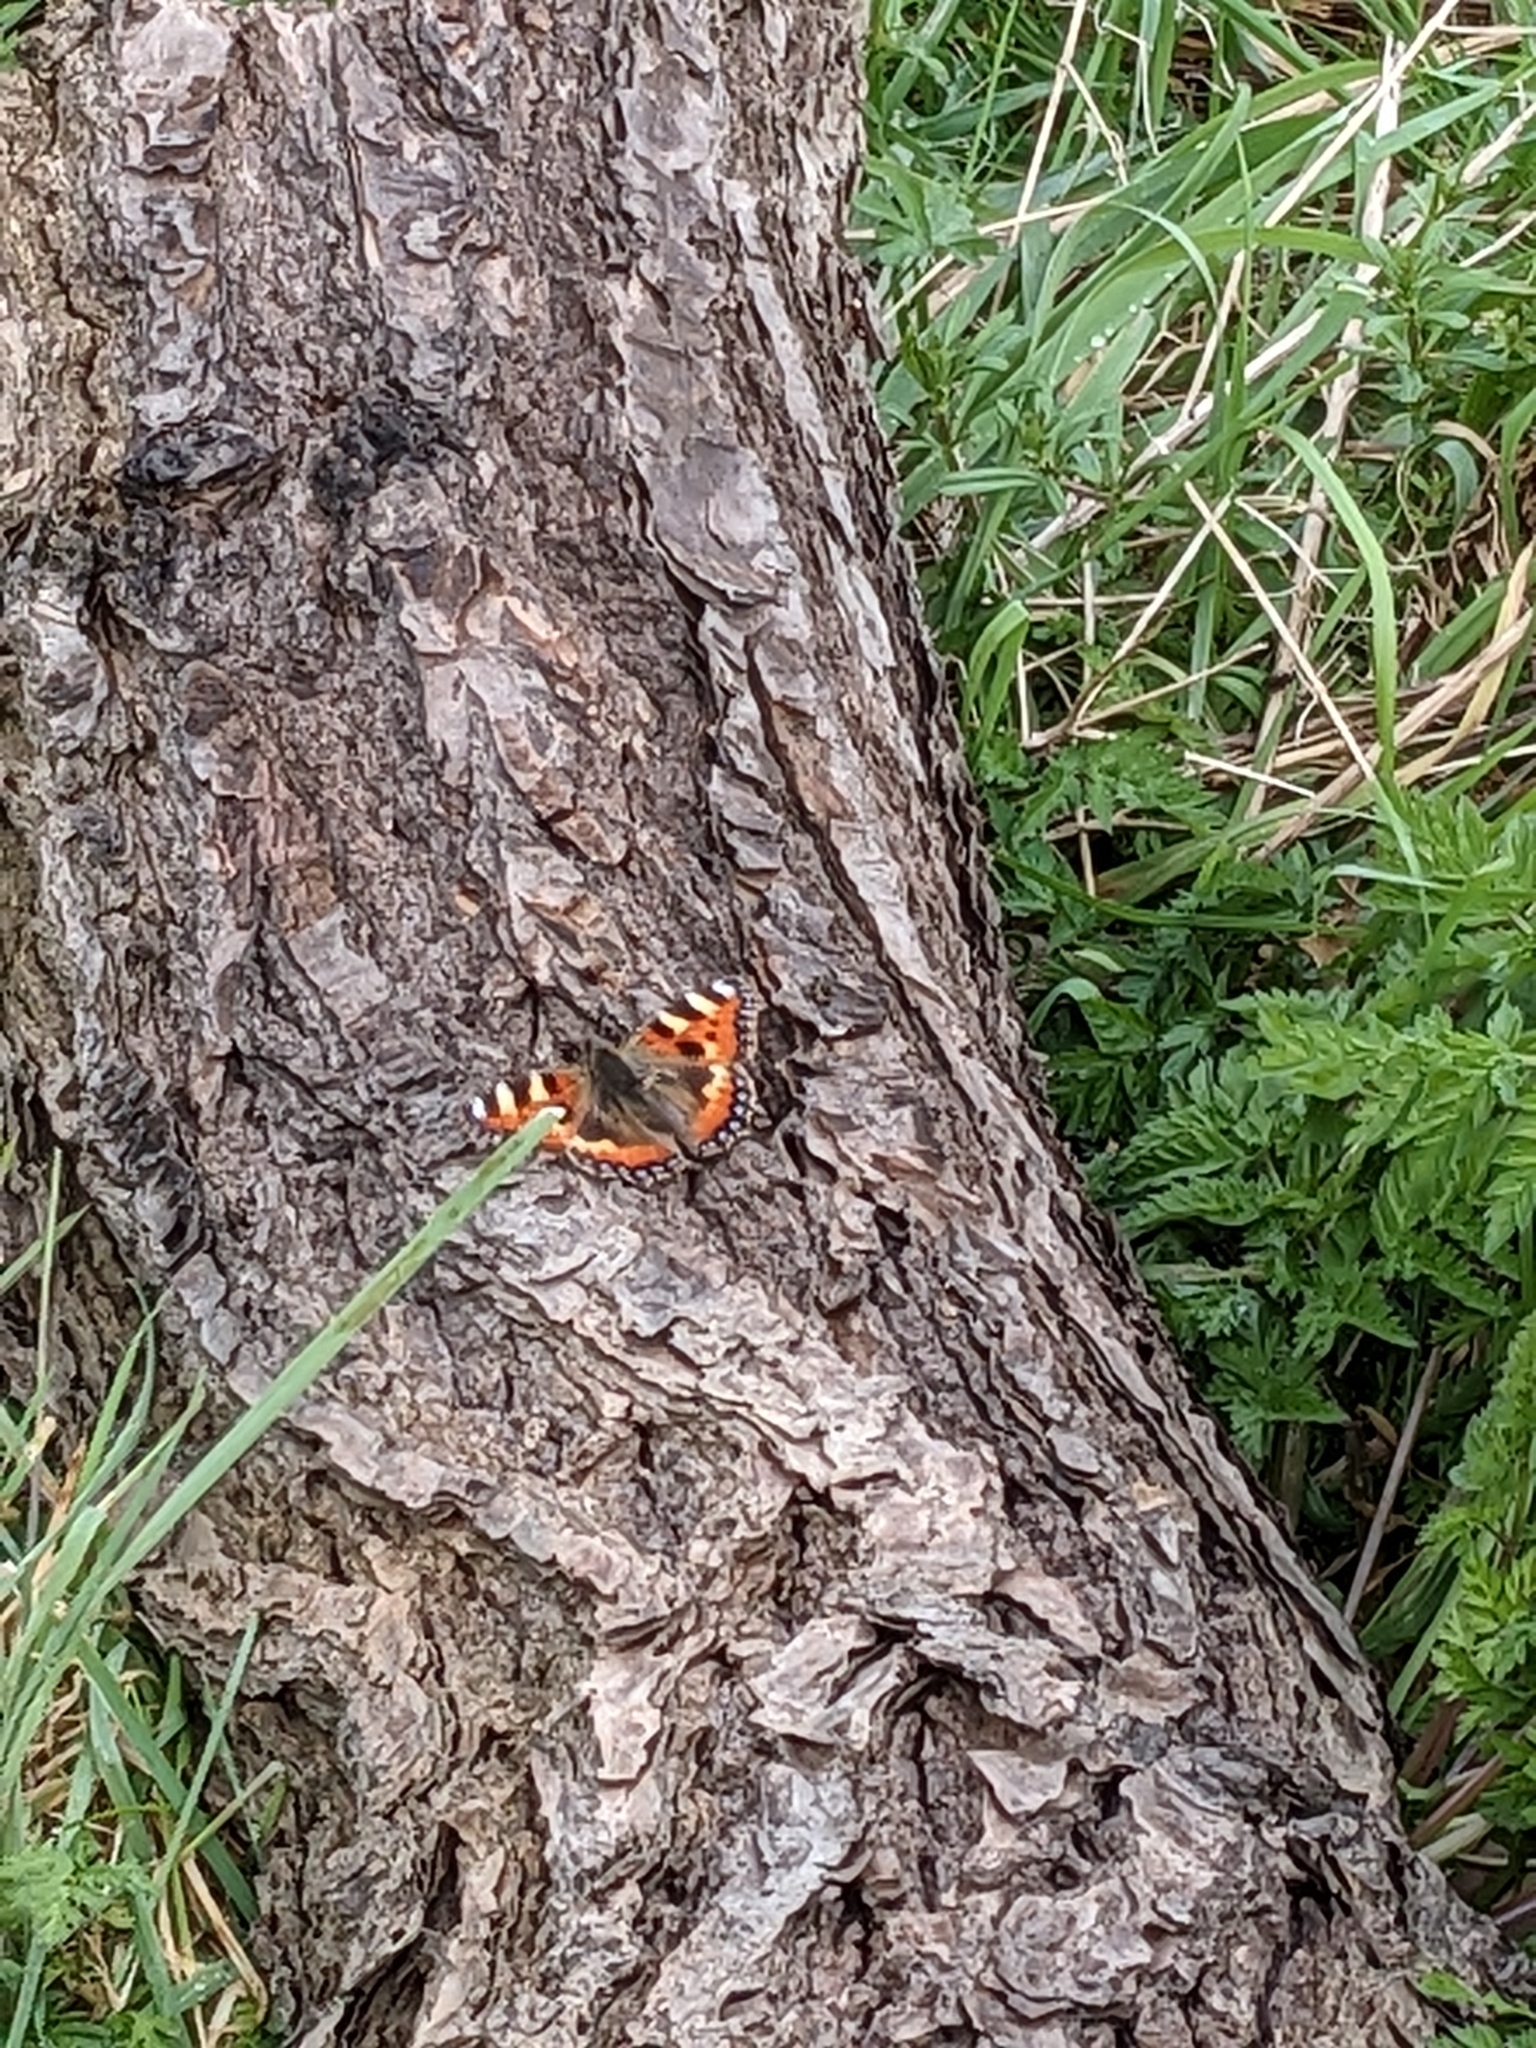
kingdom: Animalia
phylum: Arthropoda
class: Insecta
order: Lepidoptera
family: Nymphalidae
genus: Aglais
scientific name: Aglais urticae
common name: Small tortoiseshell
